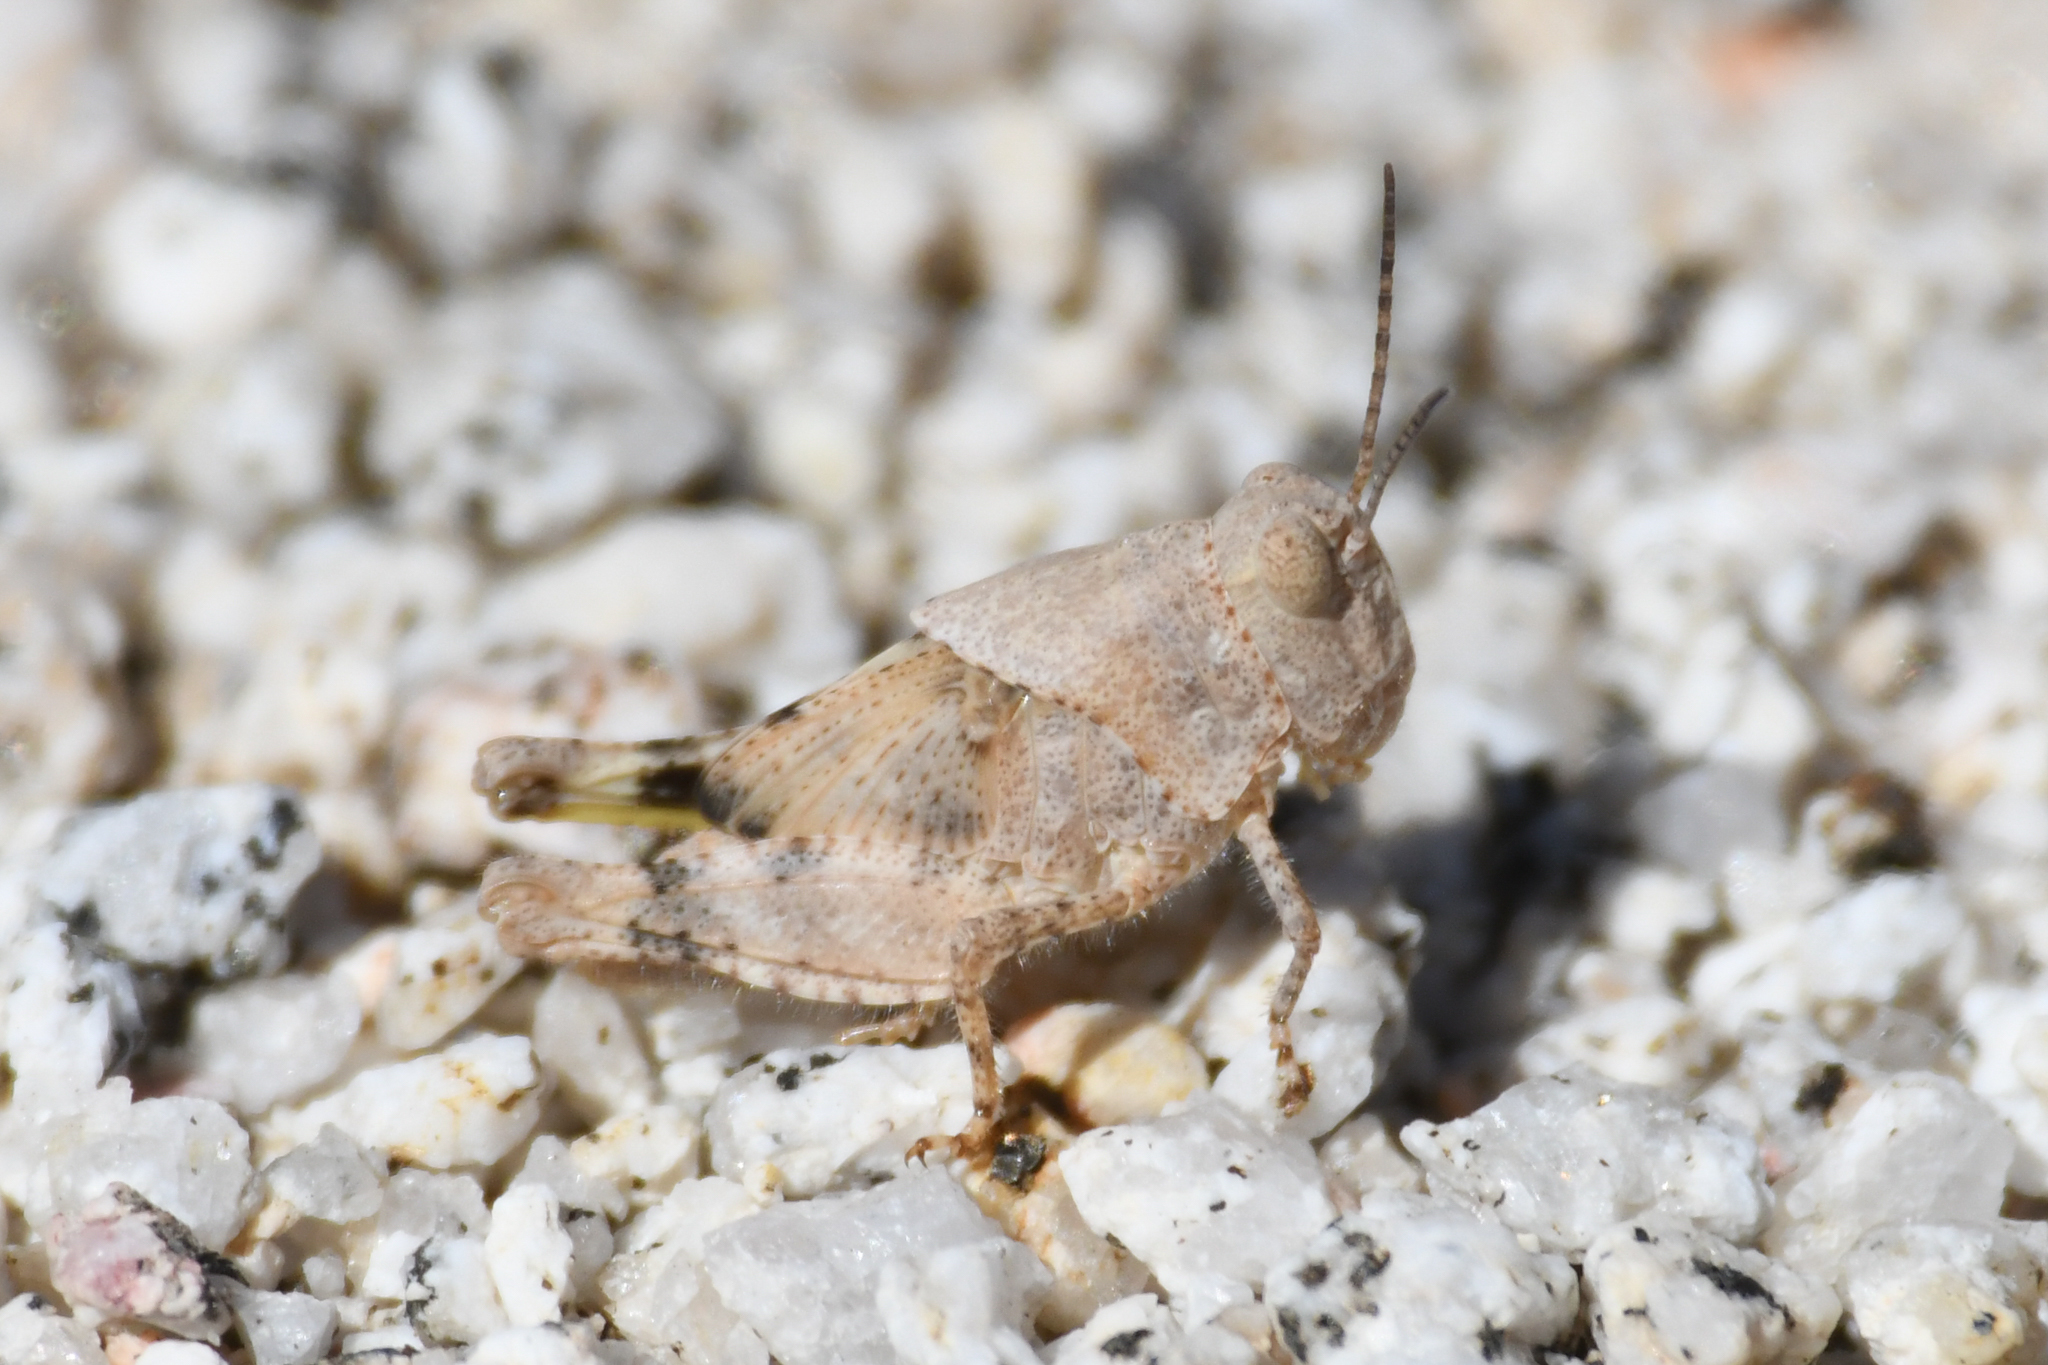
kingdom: Animalia
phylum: Arthropoda
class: Insecta
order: Orthoptera
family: Acrididae
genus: Trimerotropis
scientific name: Trimerotropis pallidipennis
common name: Pallid-winged grasshopper
